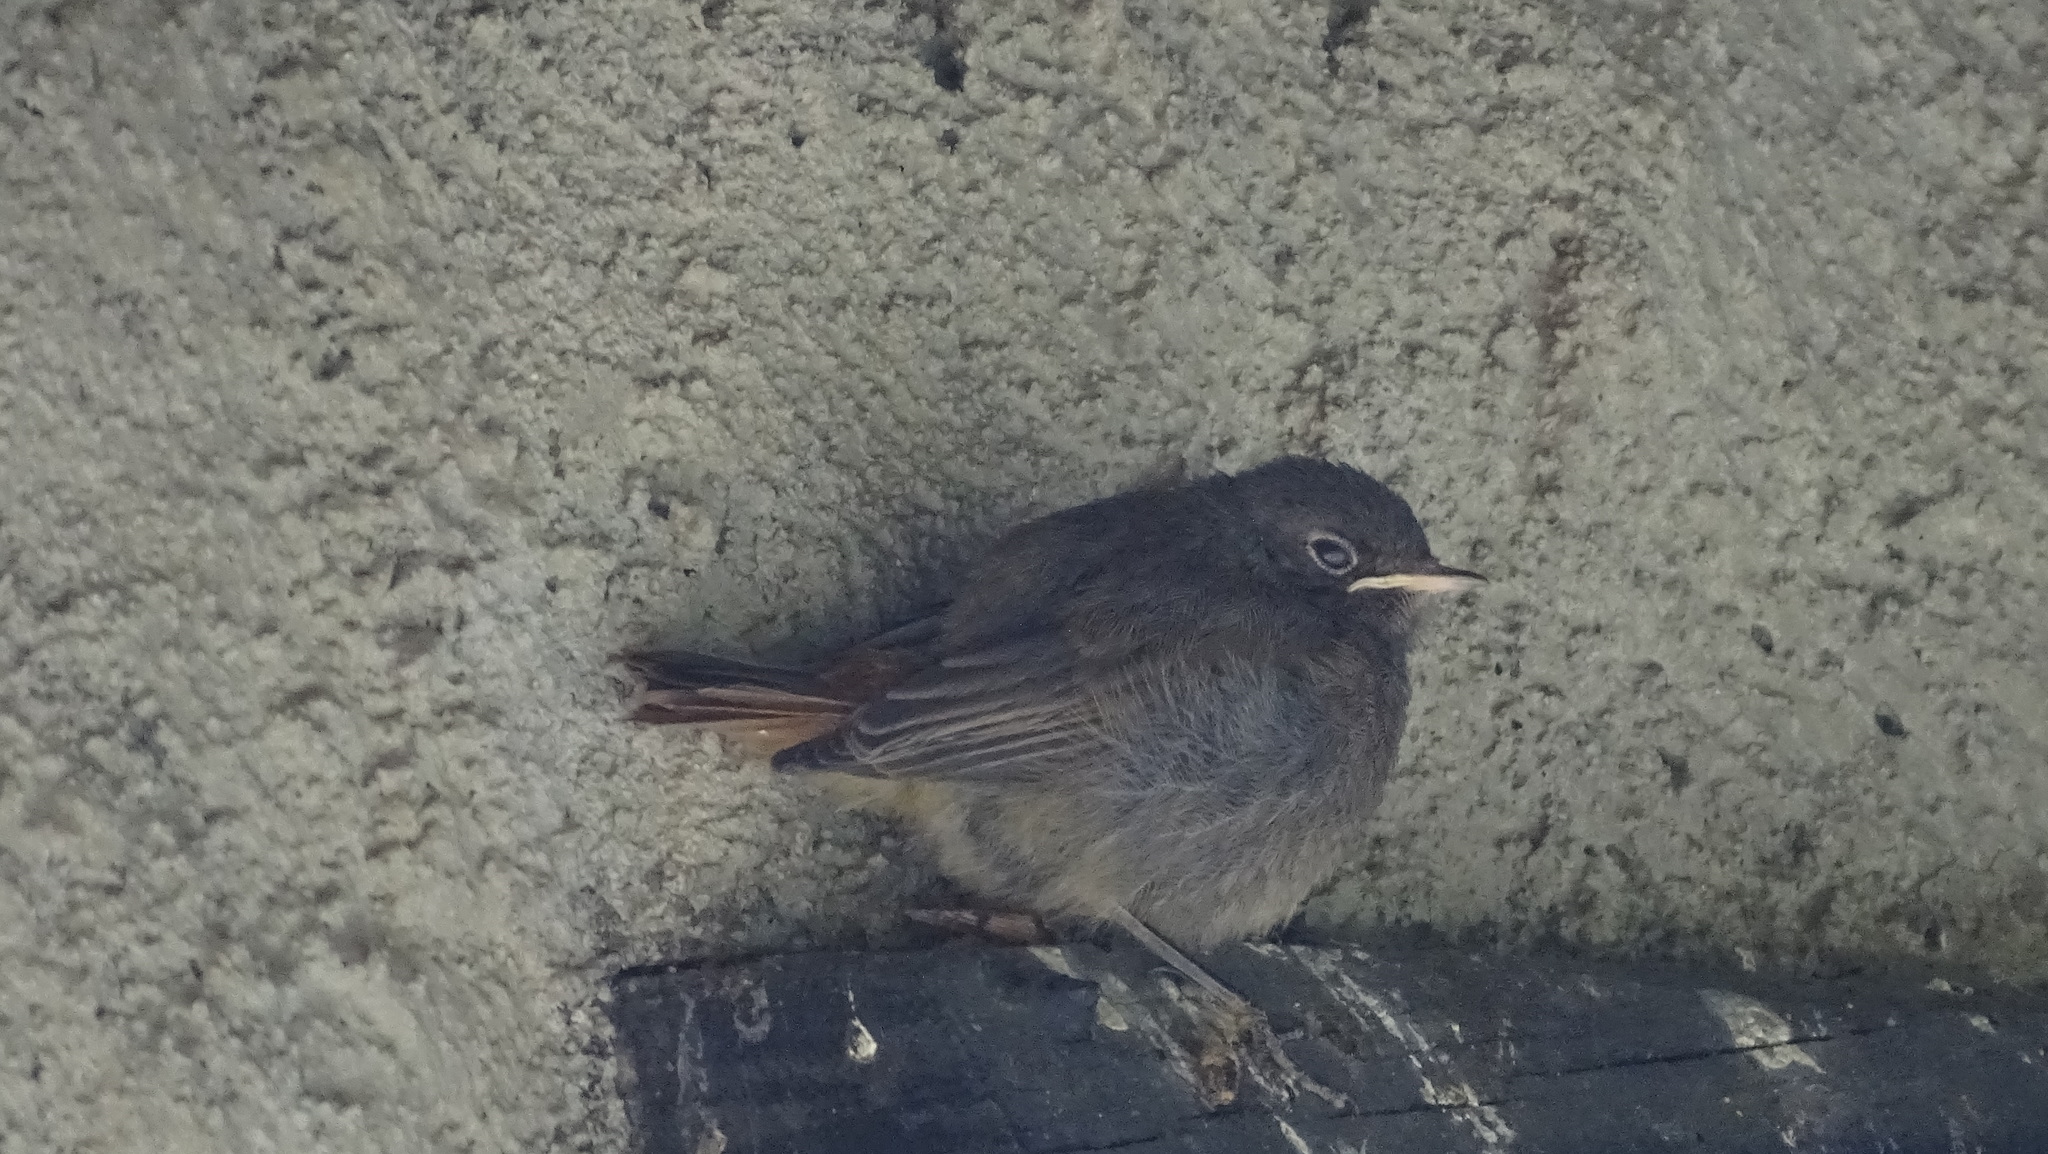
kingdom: Animalia
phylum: Chordata
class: Aves
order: Passeriformes
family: Muscicapidae
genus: Phoenicurus
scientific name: Phoenicurus ochruros
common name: Black redstart
